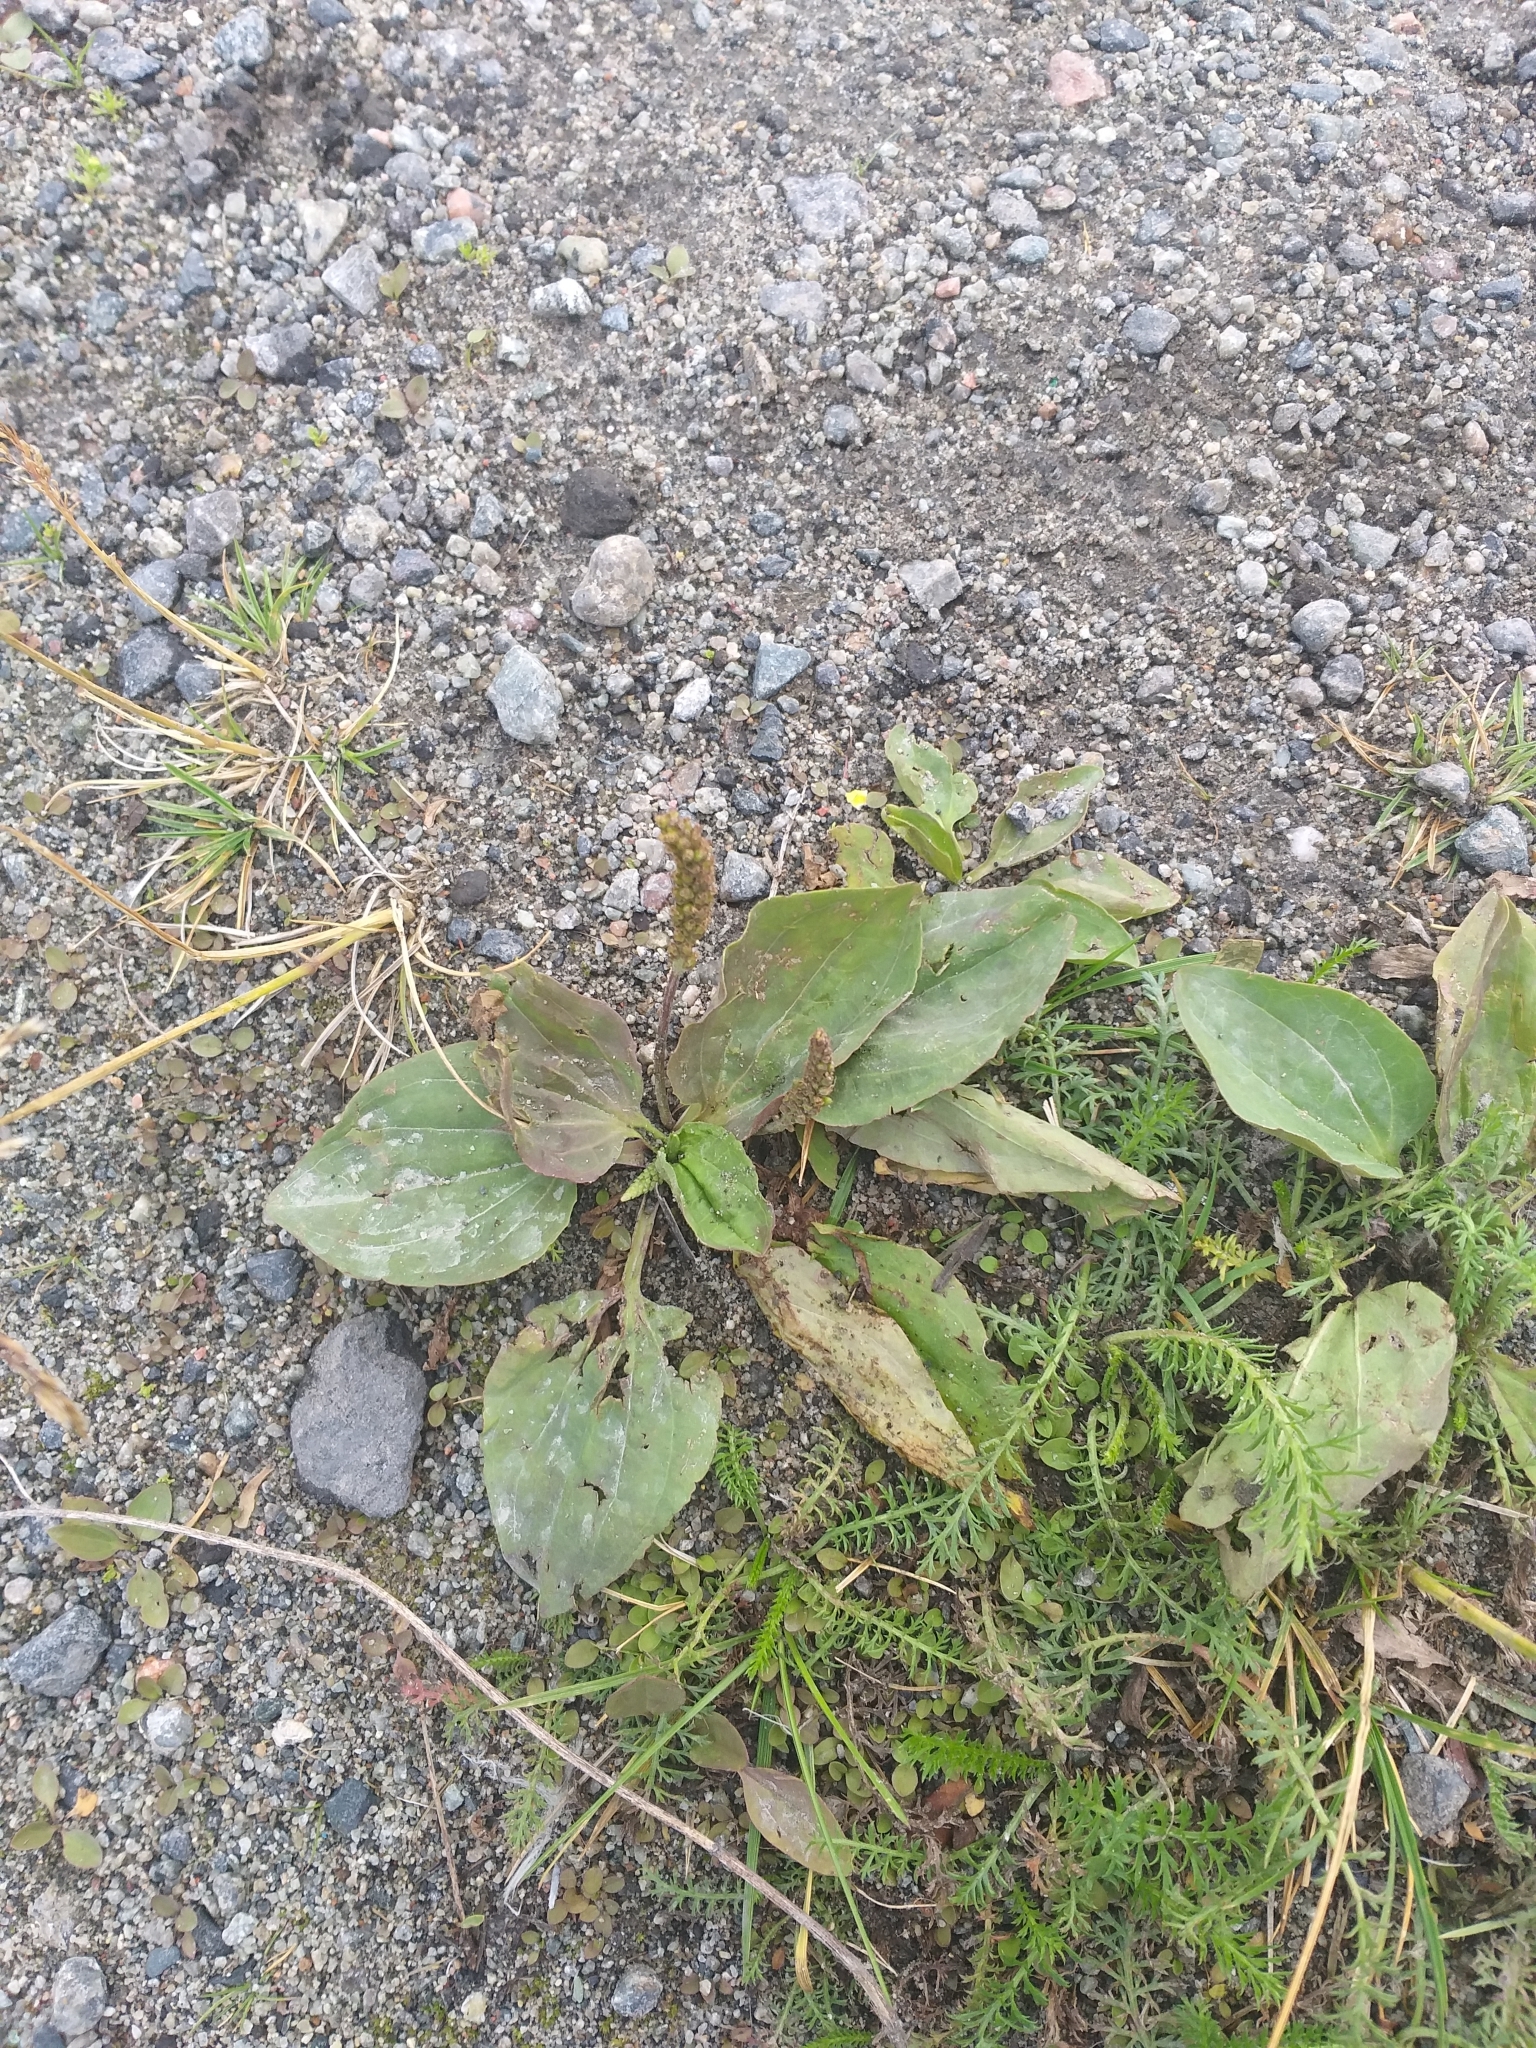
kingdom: Plantae
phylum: Tracheophyta
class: Magnoliopsida
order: Lamiales
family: Plantaginaceae
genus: Plantago
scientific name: Plantago major
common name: Common plantain
